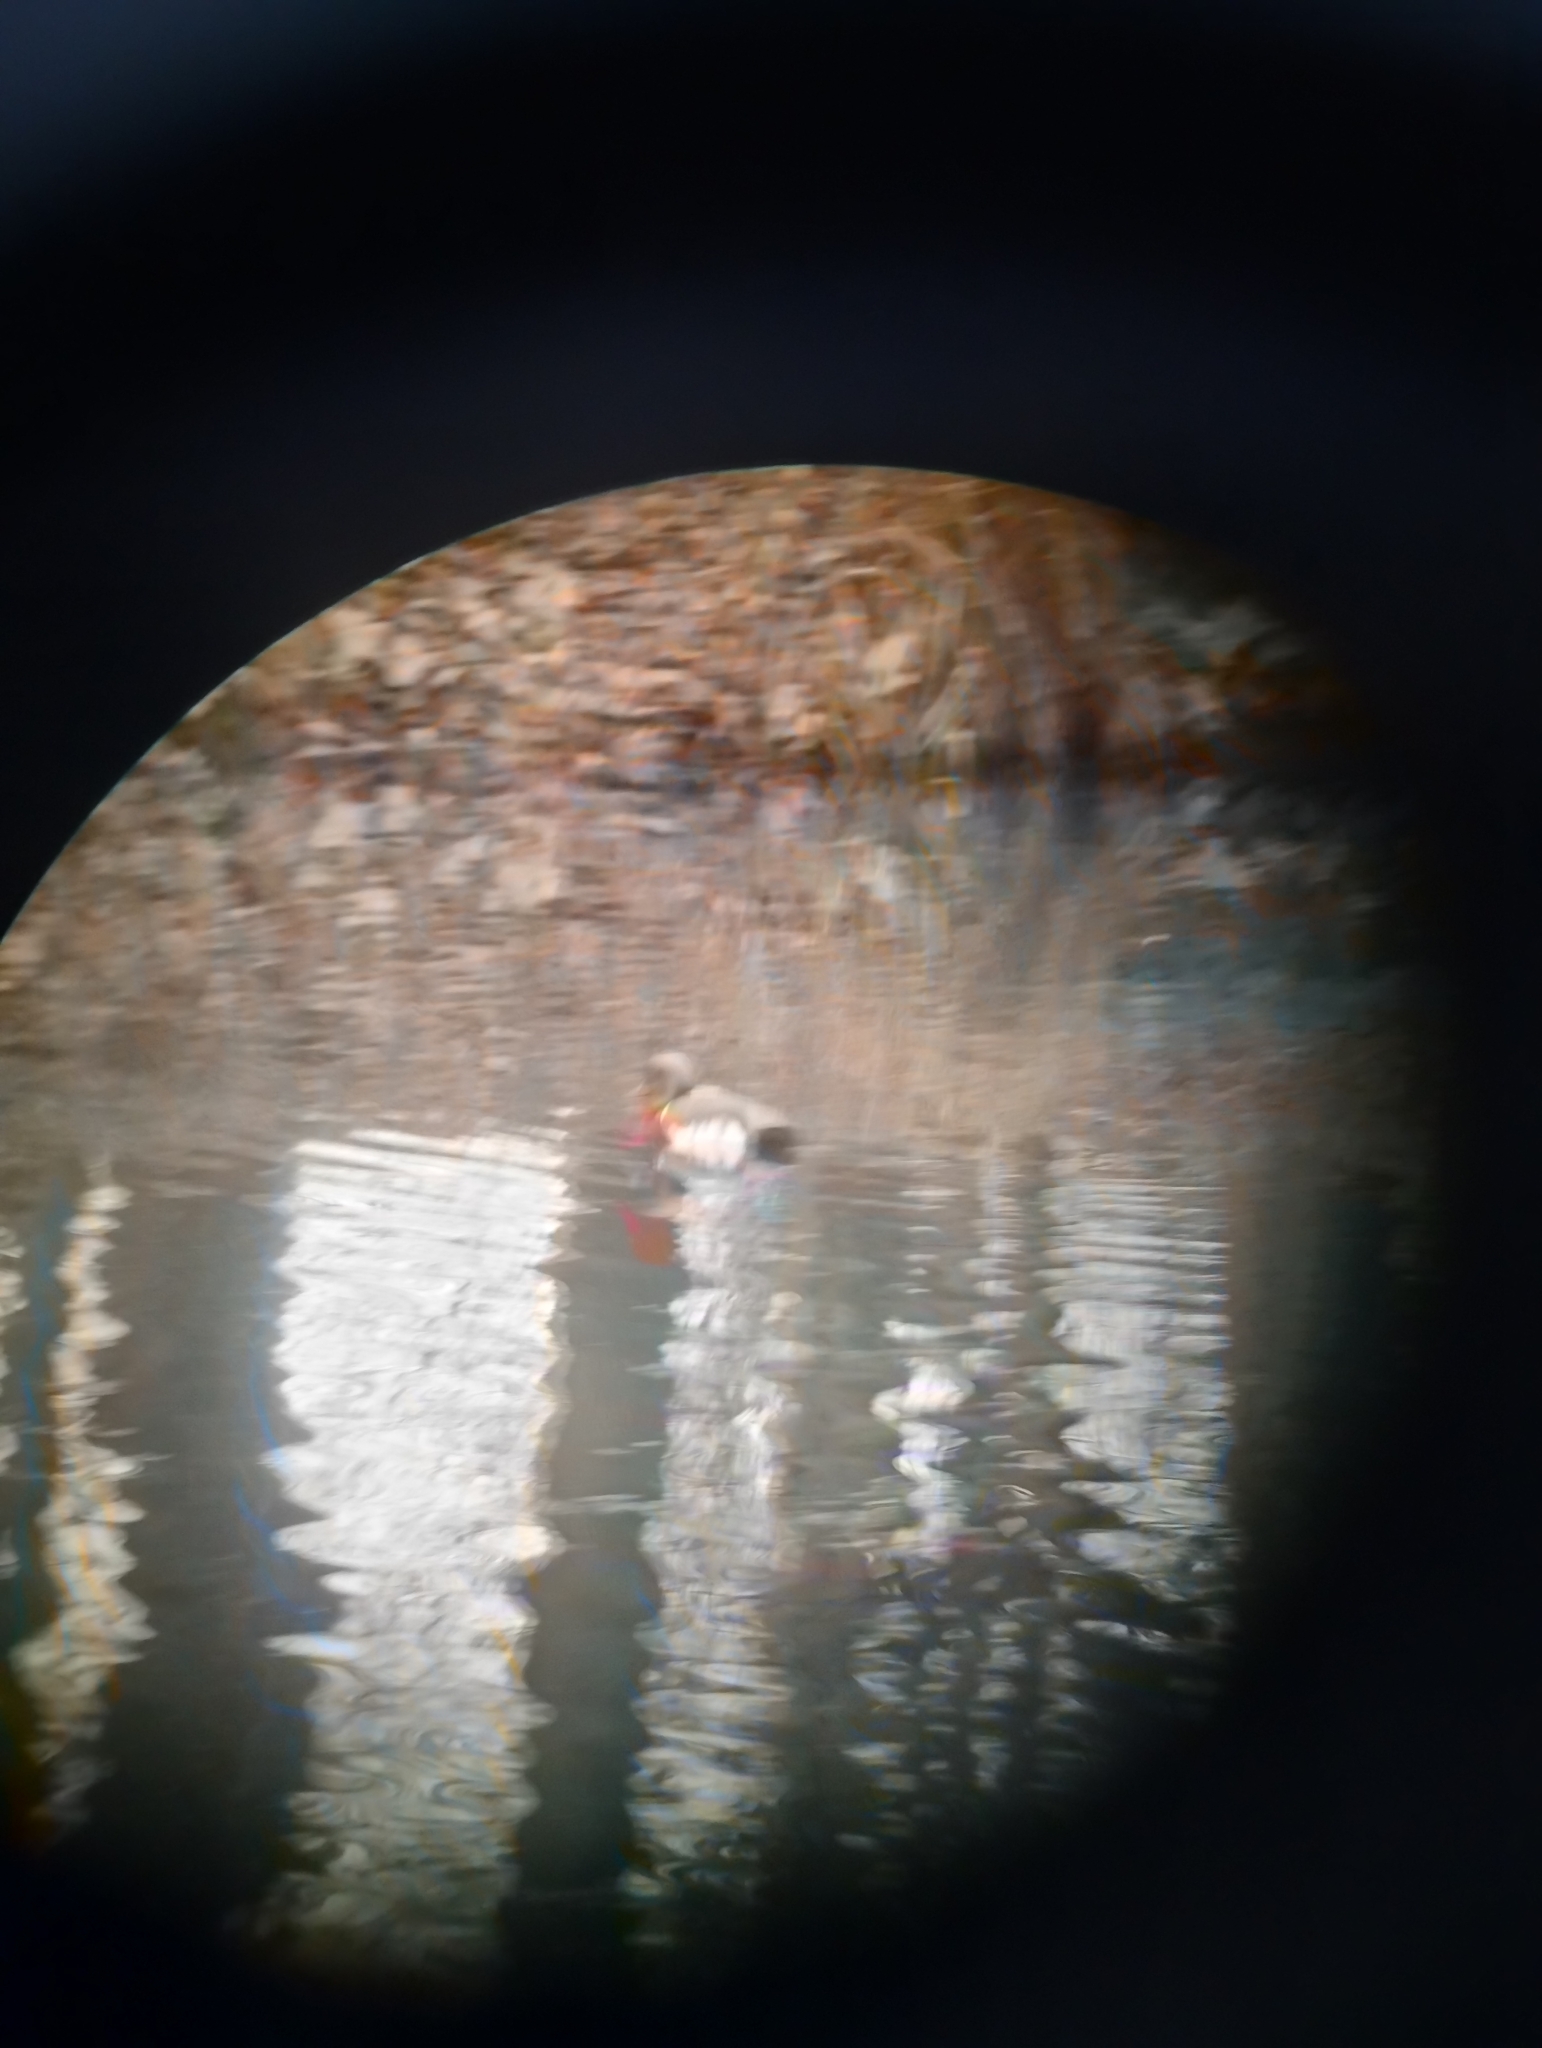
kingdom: Animalia
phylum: Chordata
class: Aves
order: Anseriformes
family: Anatidae
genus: Netta
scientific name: Netta rufina
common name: Red-crested pochard
